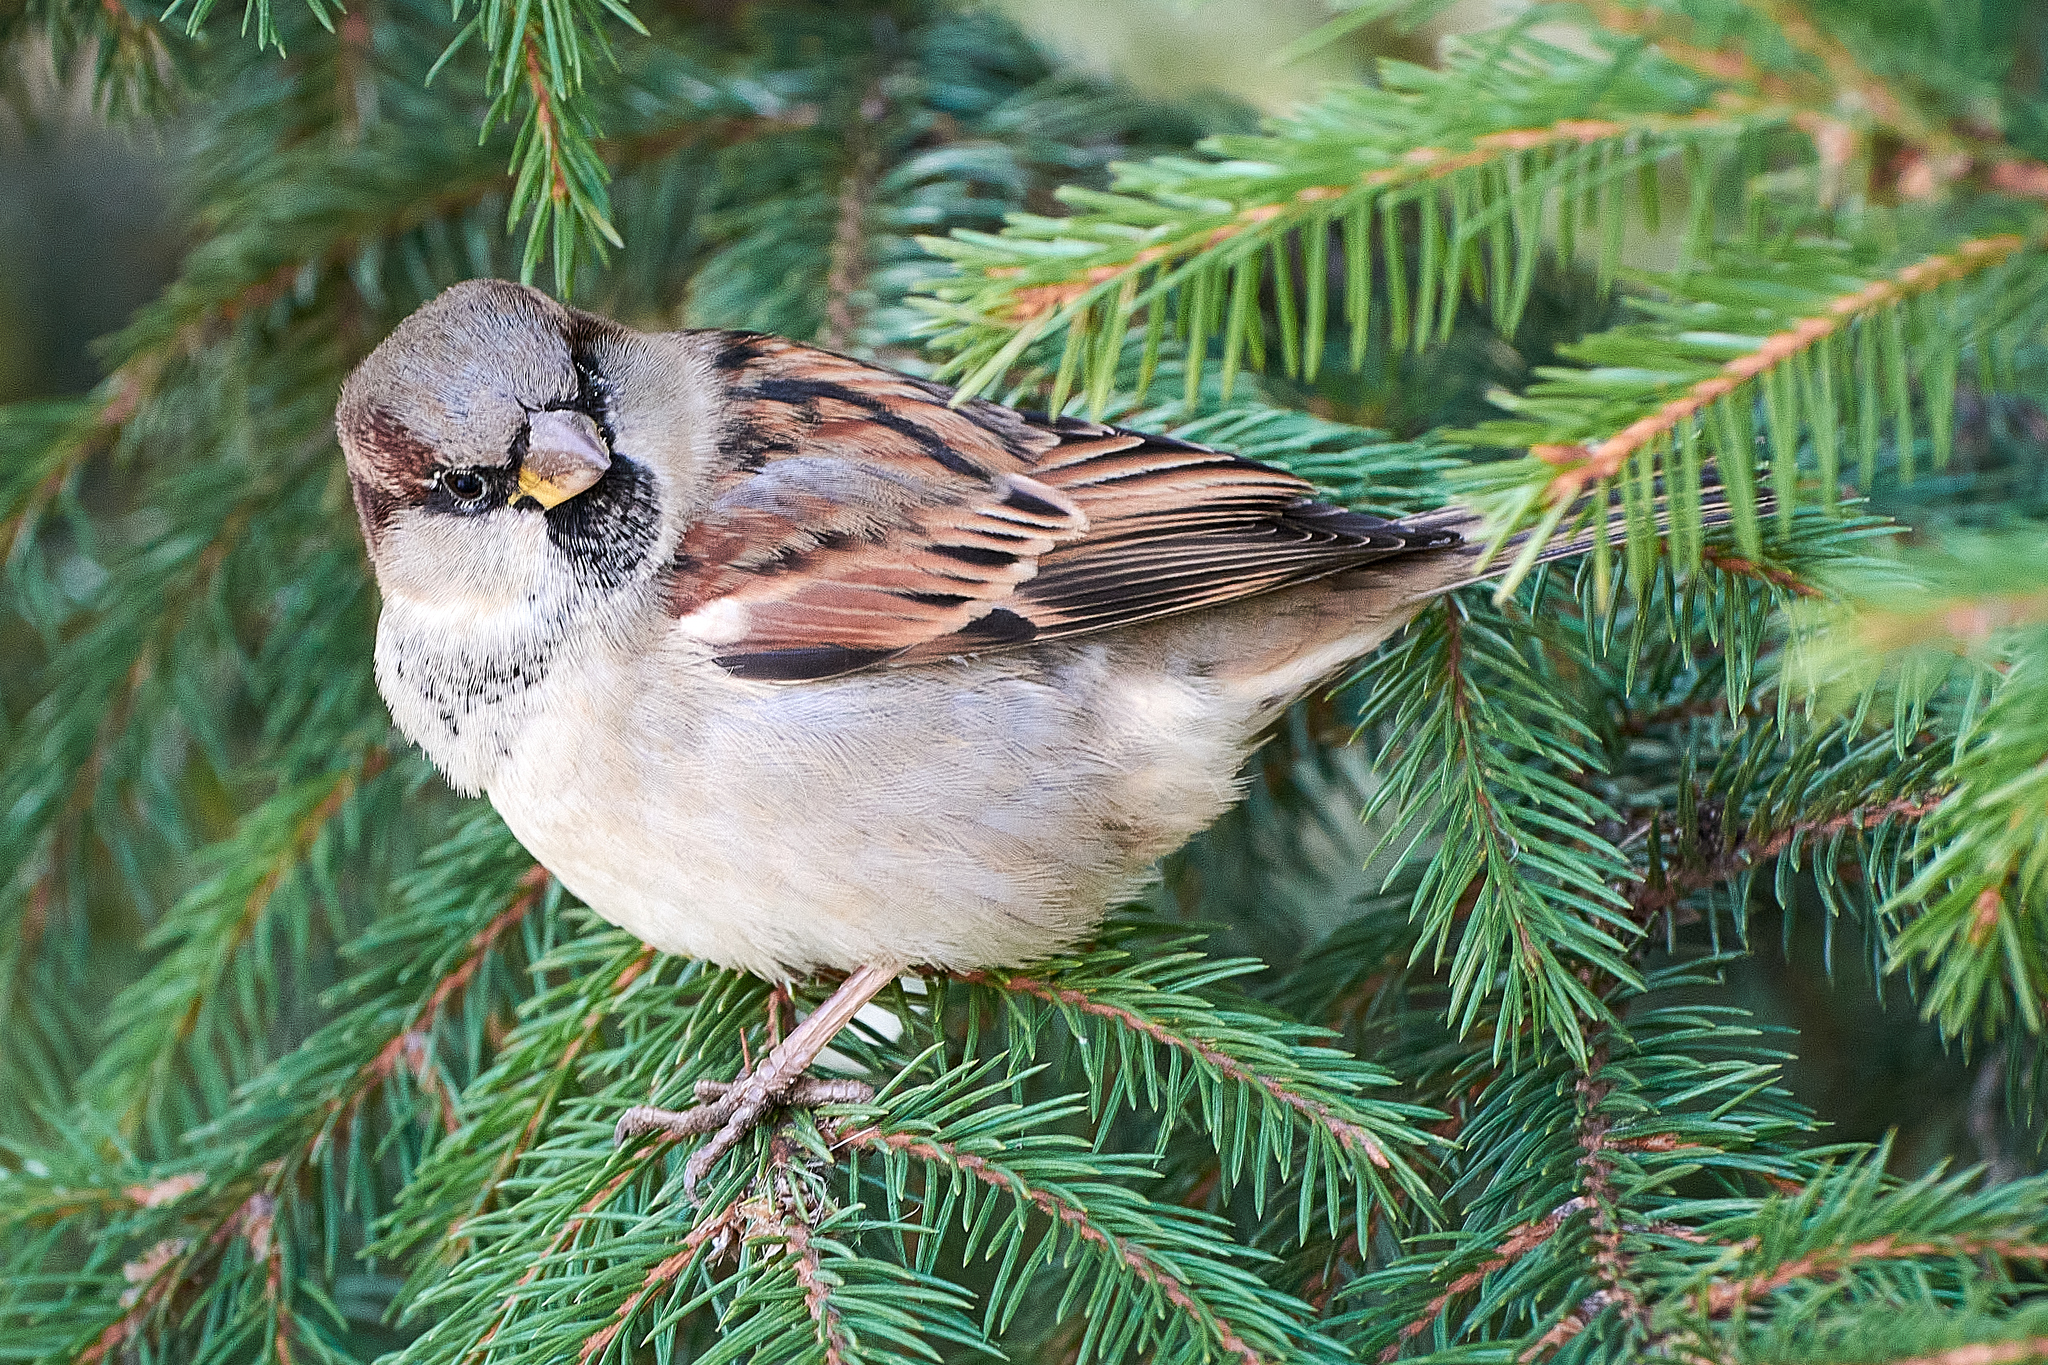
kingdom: Animalia
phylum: Chordata
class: Aves
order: Passeriformes
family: Passeridae
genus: Passer
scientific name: Passer domesticus
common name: House sparrow
